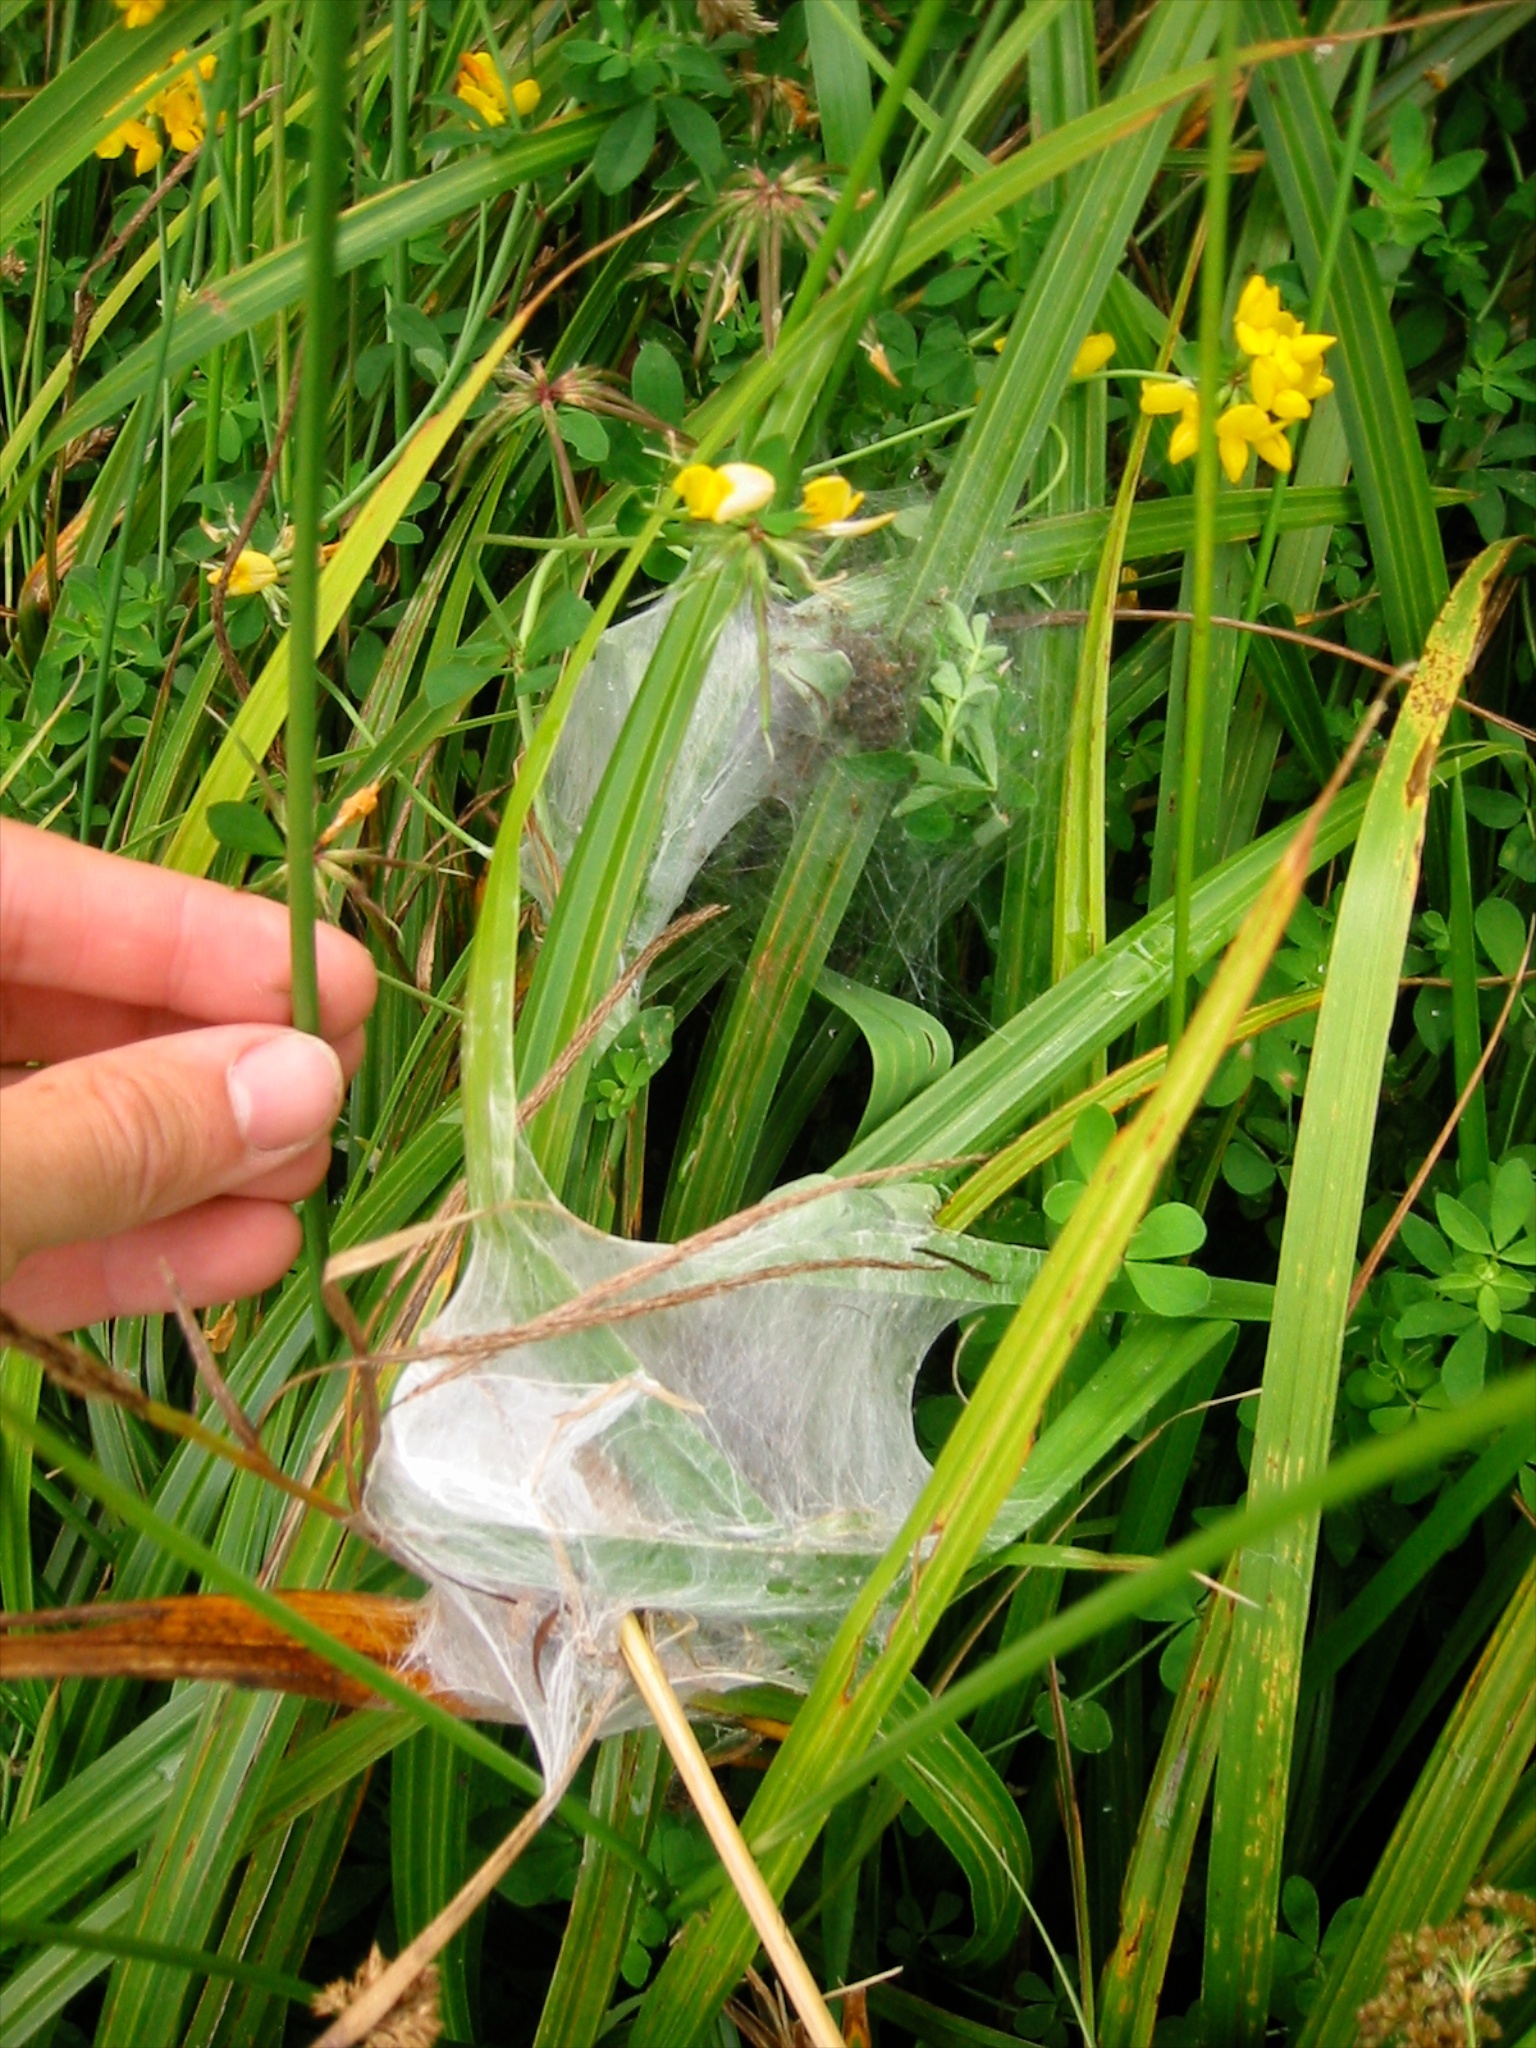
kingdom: Animalia
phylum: Arthropoda
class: Arachnida
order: Araneae
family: Pisauridae
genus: Dolomedes
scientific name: Dolomedes minor
